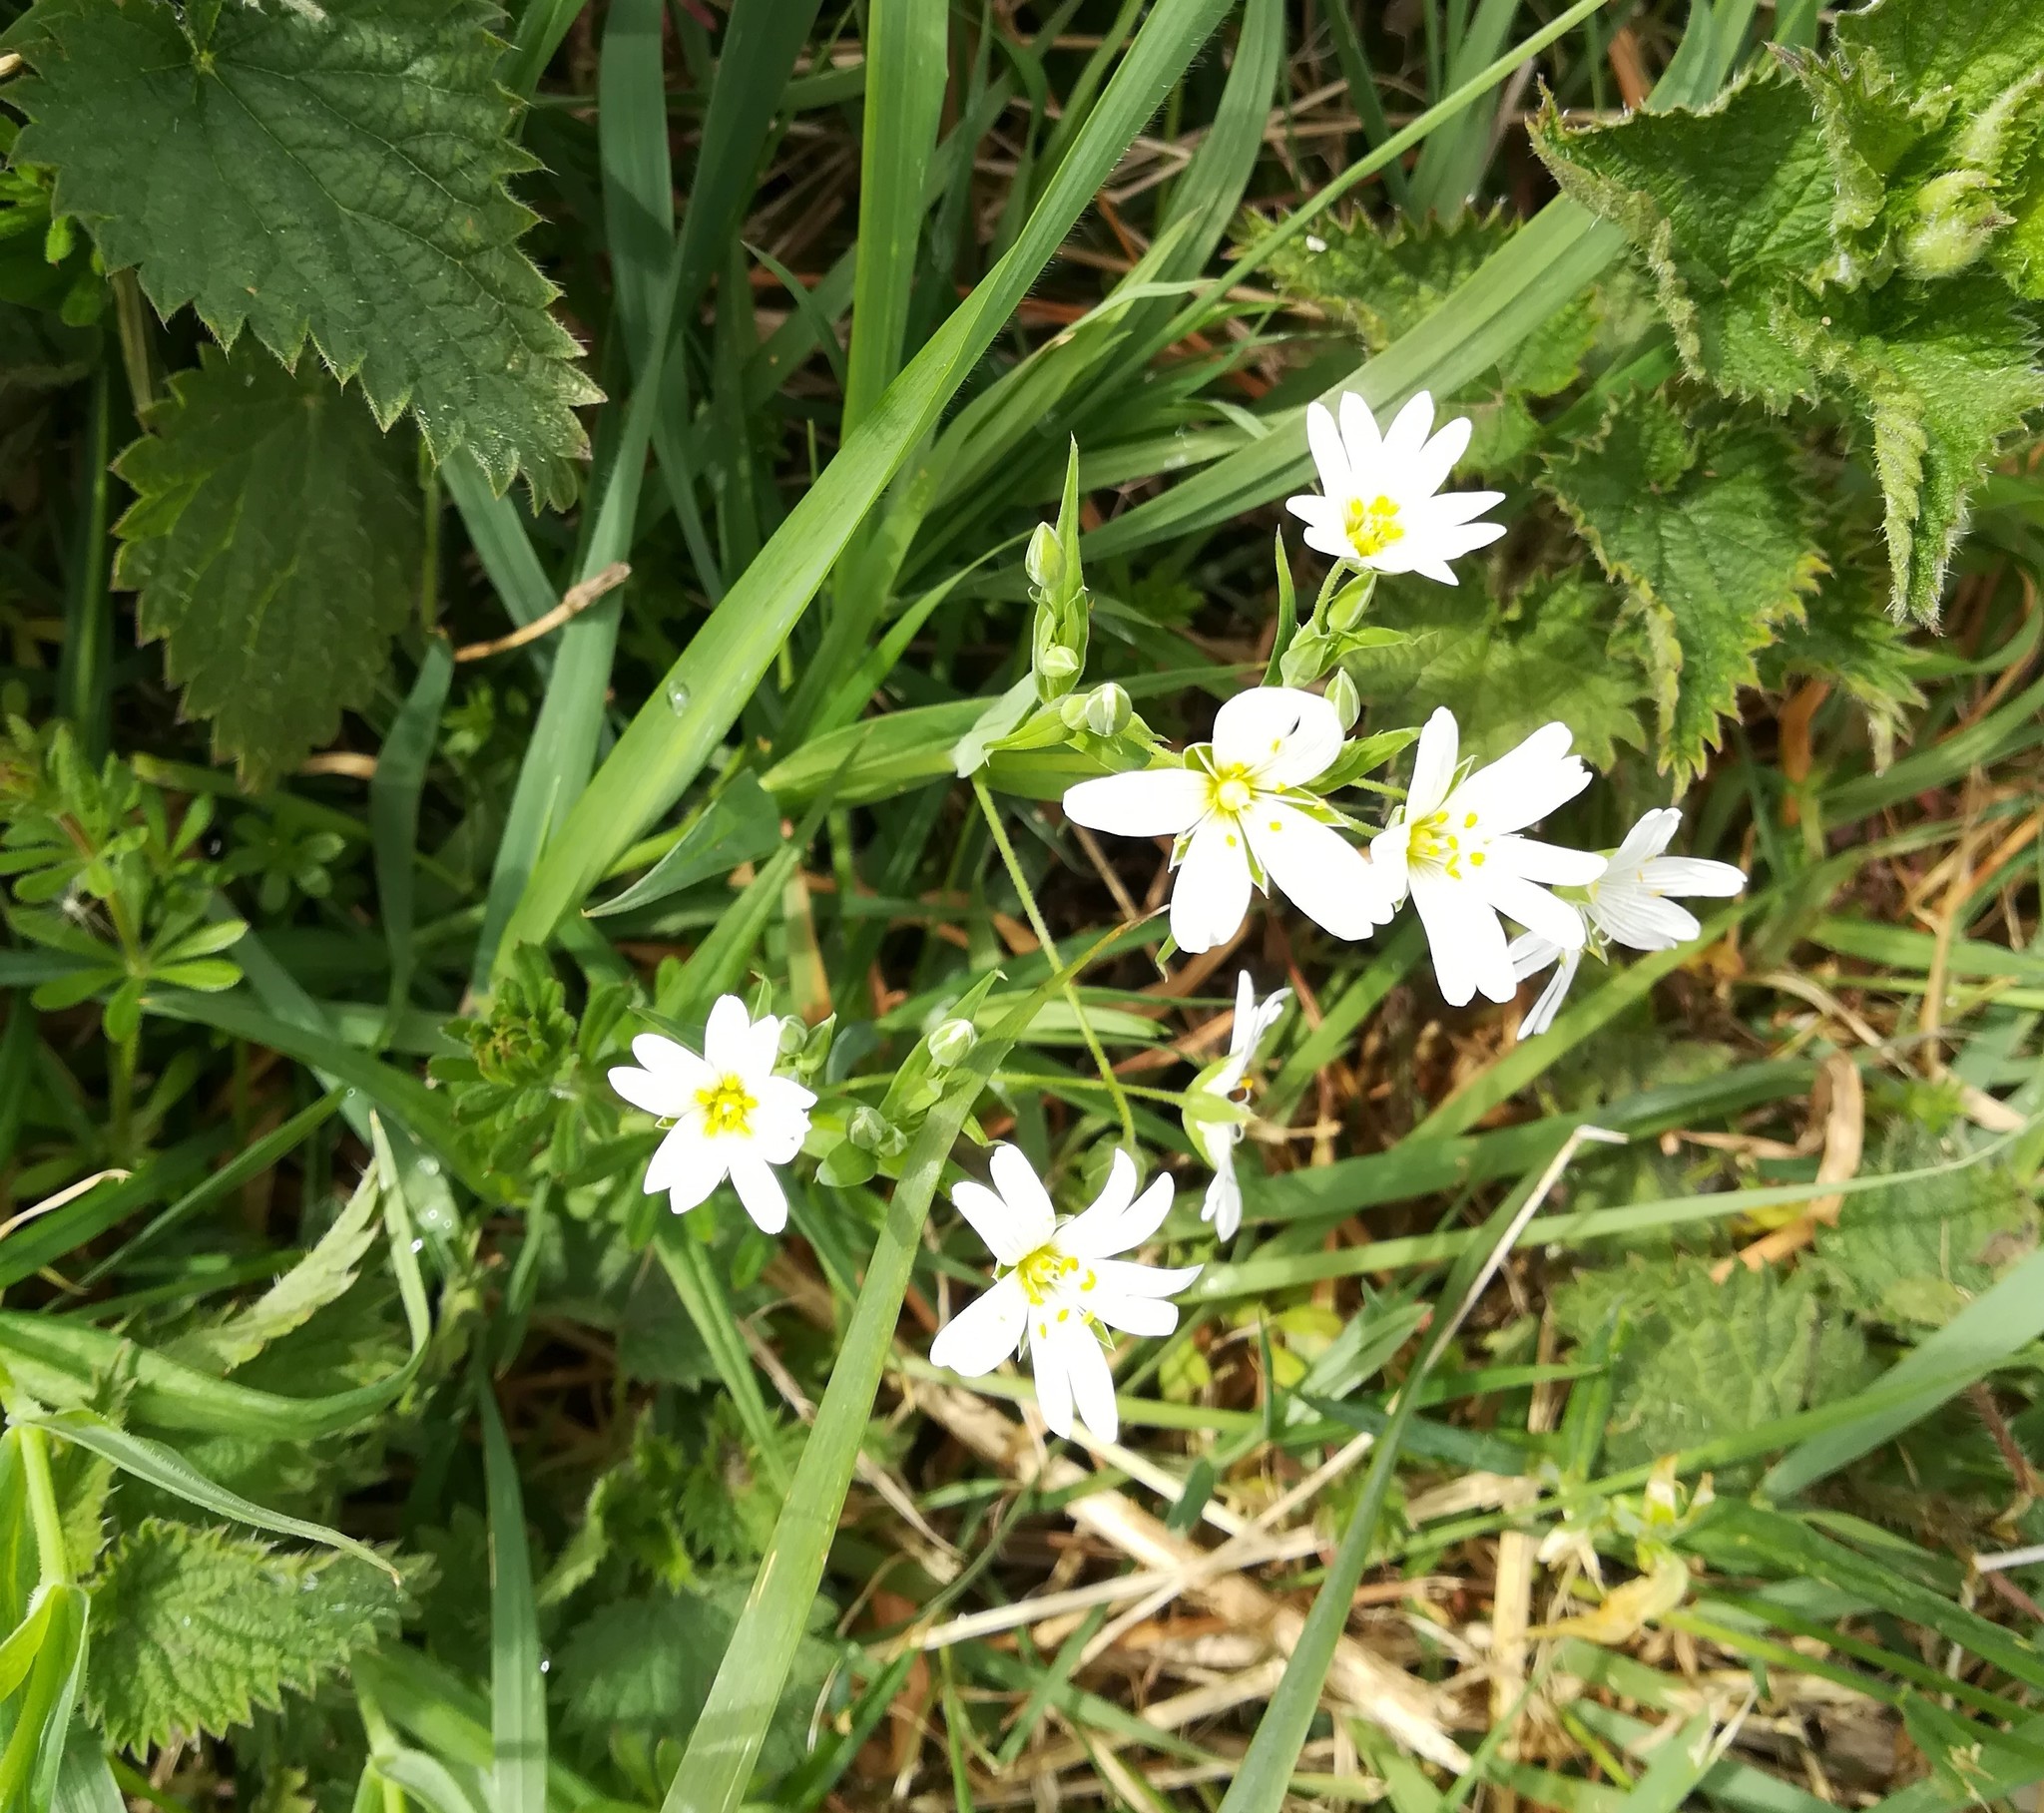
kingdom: Plantae
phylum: Tracheophyta
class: Magnoliopsida
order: Caryophyllales
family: Caryophyllaceae
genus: Rabelera
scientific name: Rabelera holostea
